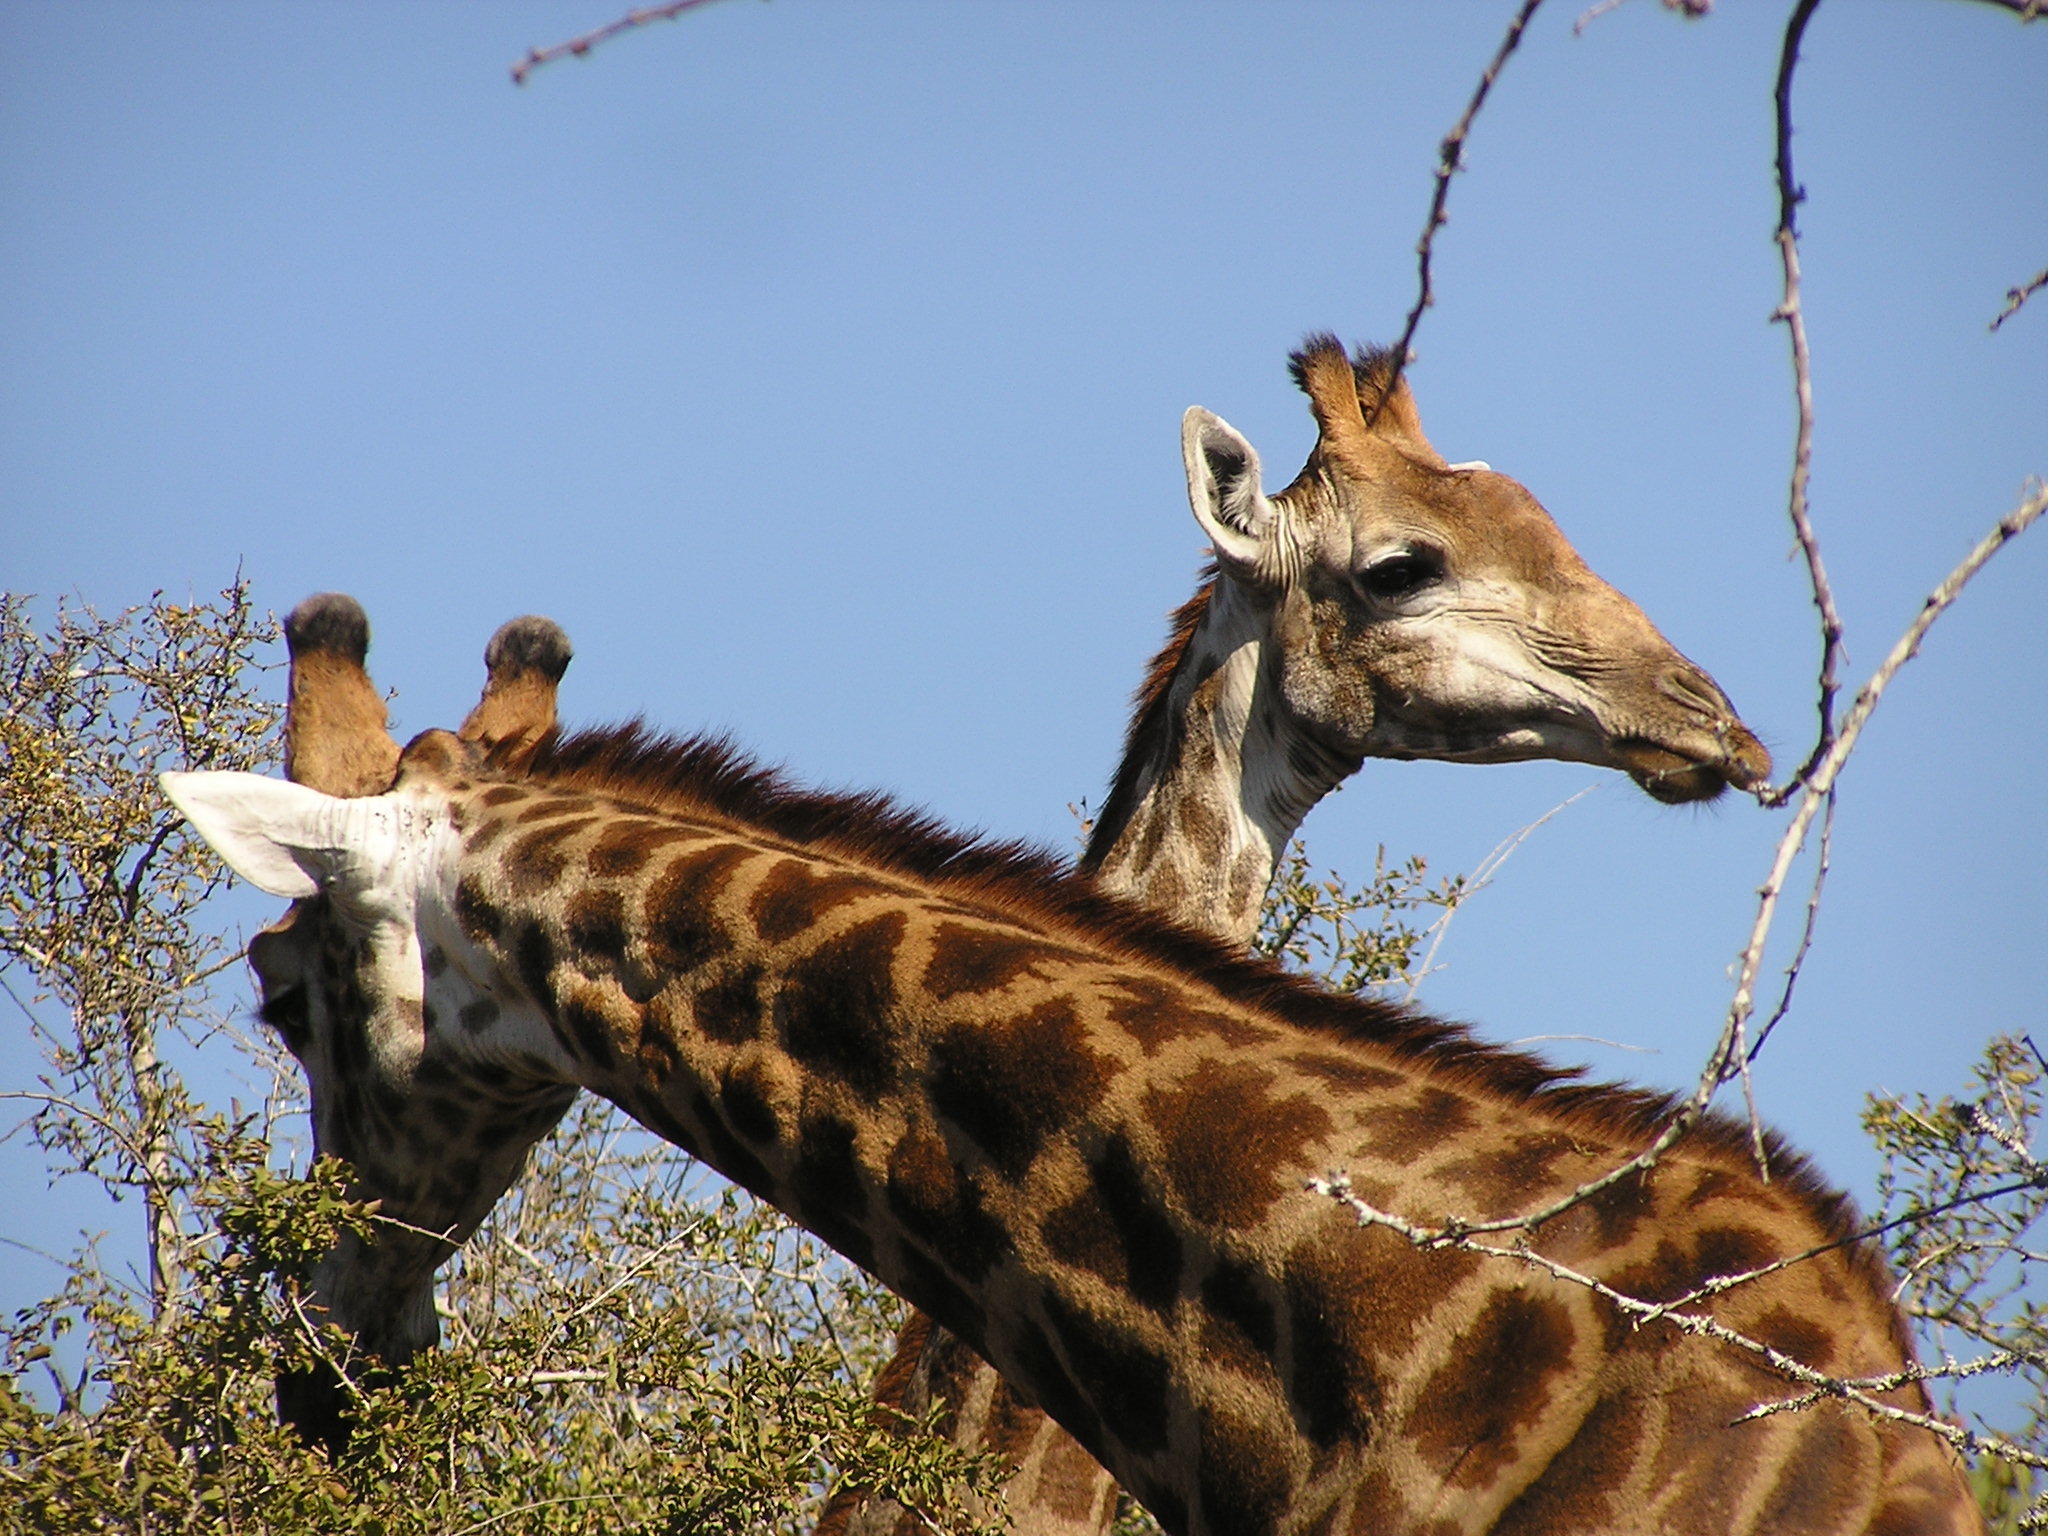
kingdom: Animalia
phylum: Chordata
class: Mammalia
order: Artiodactyla
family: Giraffidae
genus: Giraffa
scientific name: Giraffa giraffa
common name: Southern giraffe
